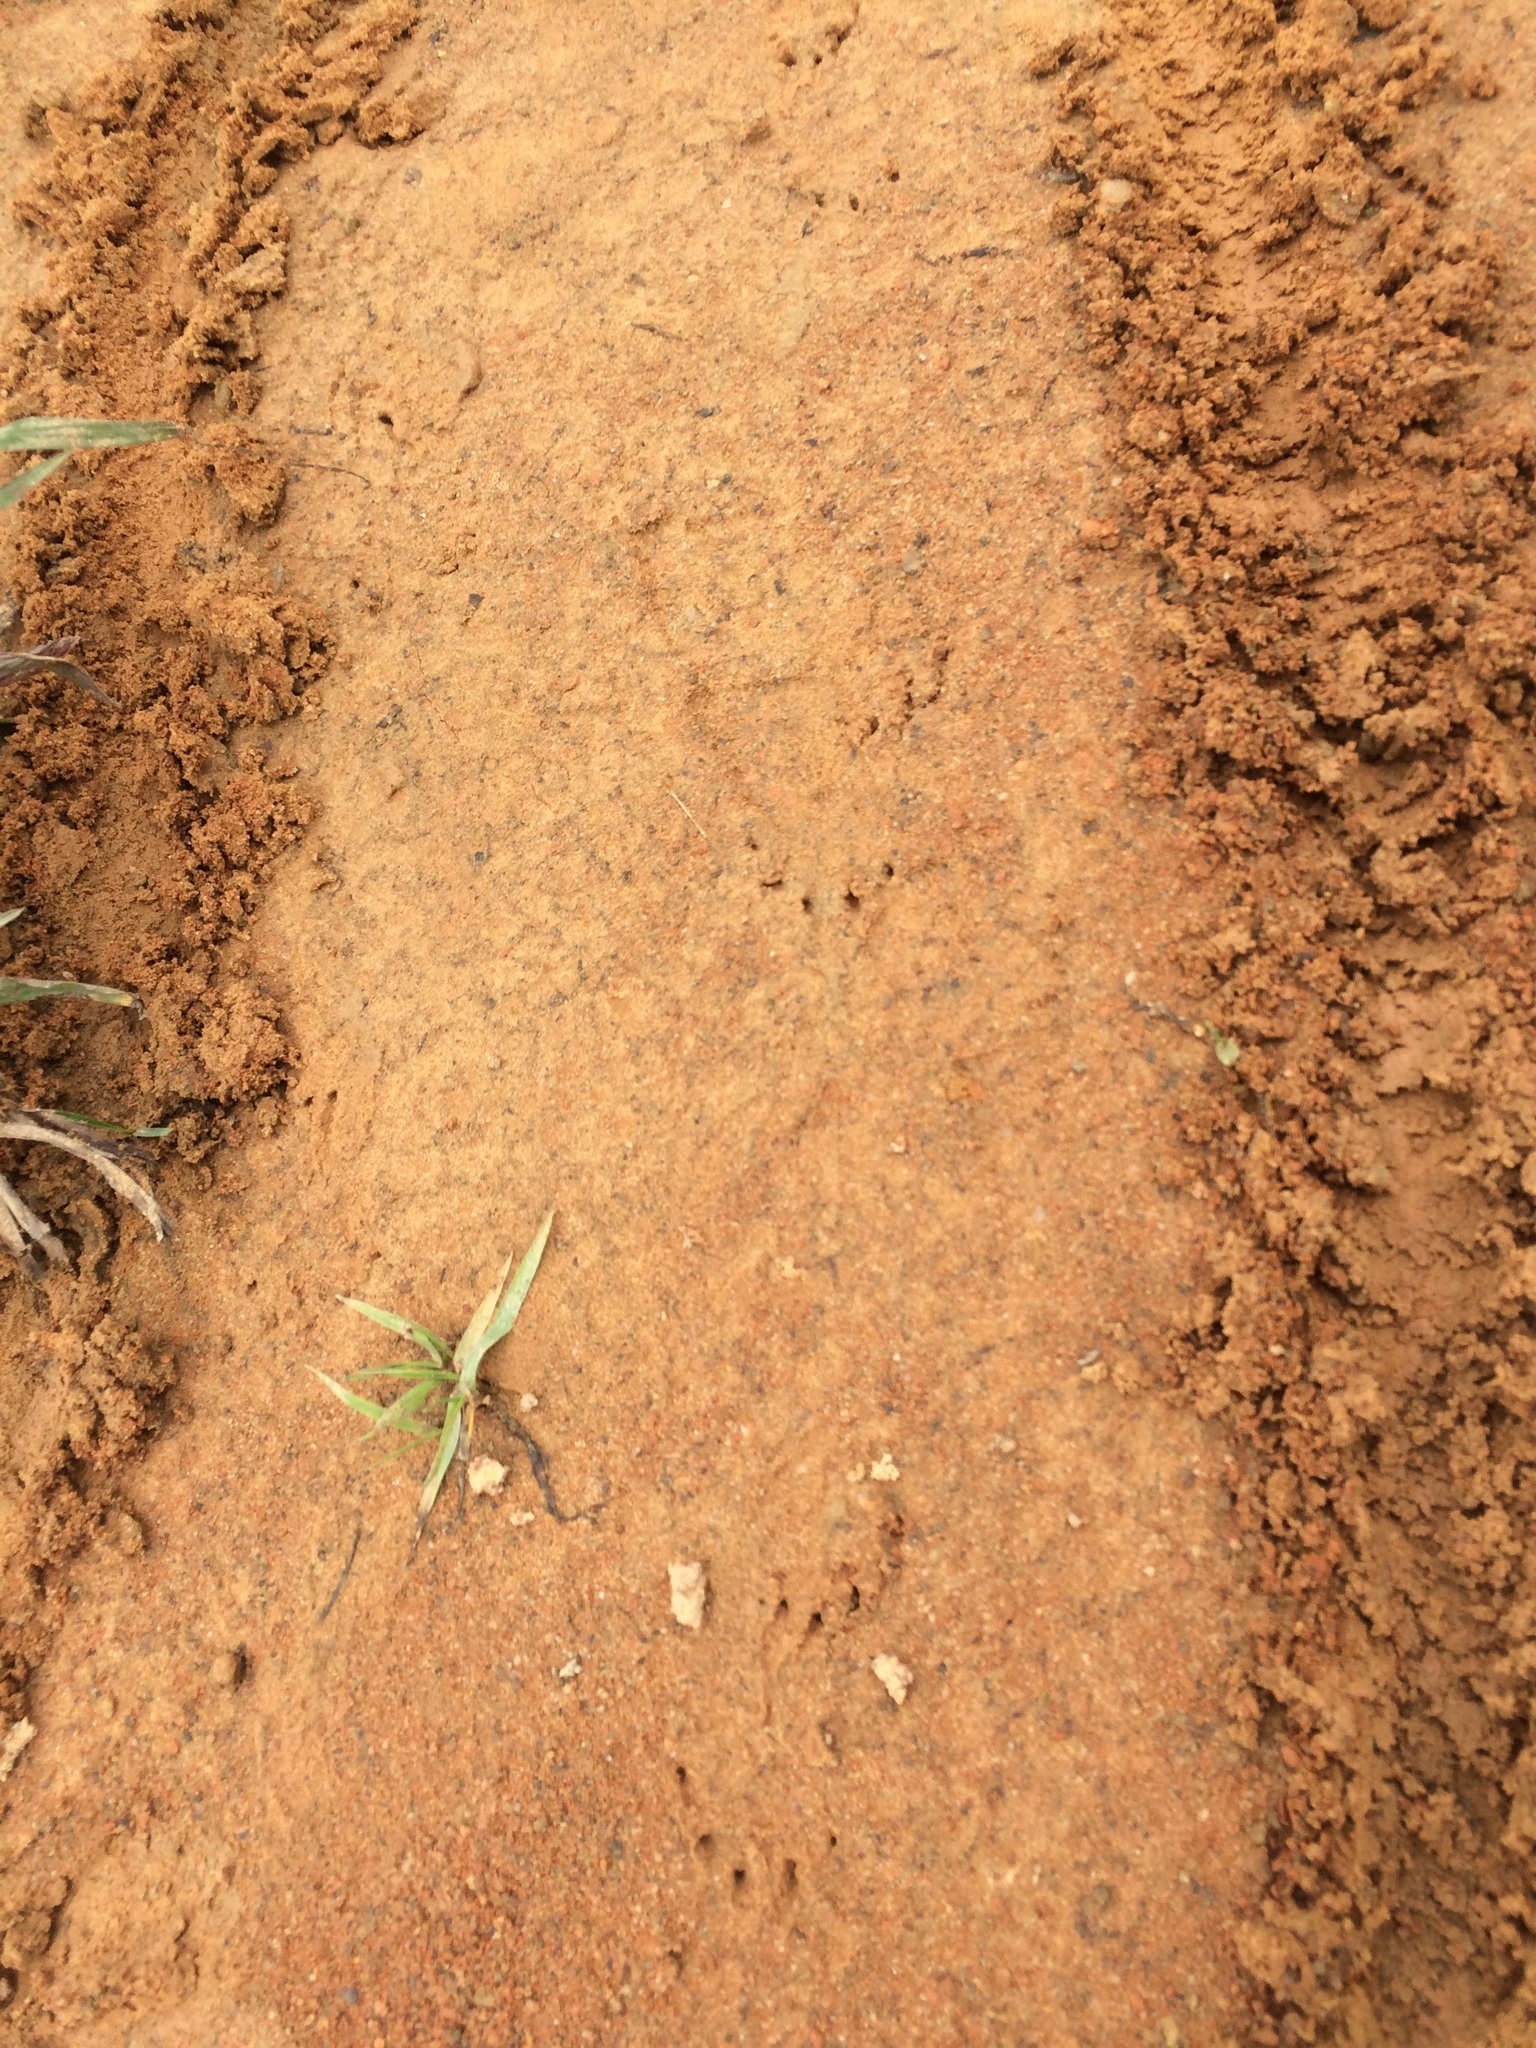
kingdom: Animalia
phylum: Chordata
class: Testudines
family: Emydidae
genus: Terrapene
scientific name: Terrapene carolina
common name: Common box turtle
